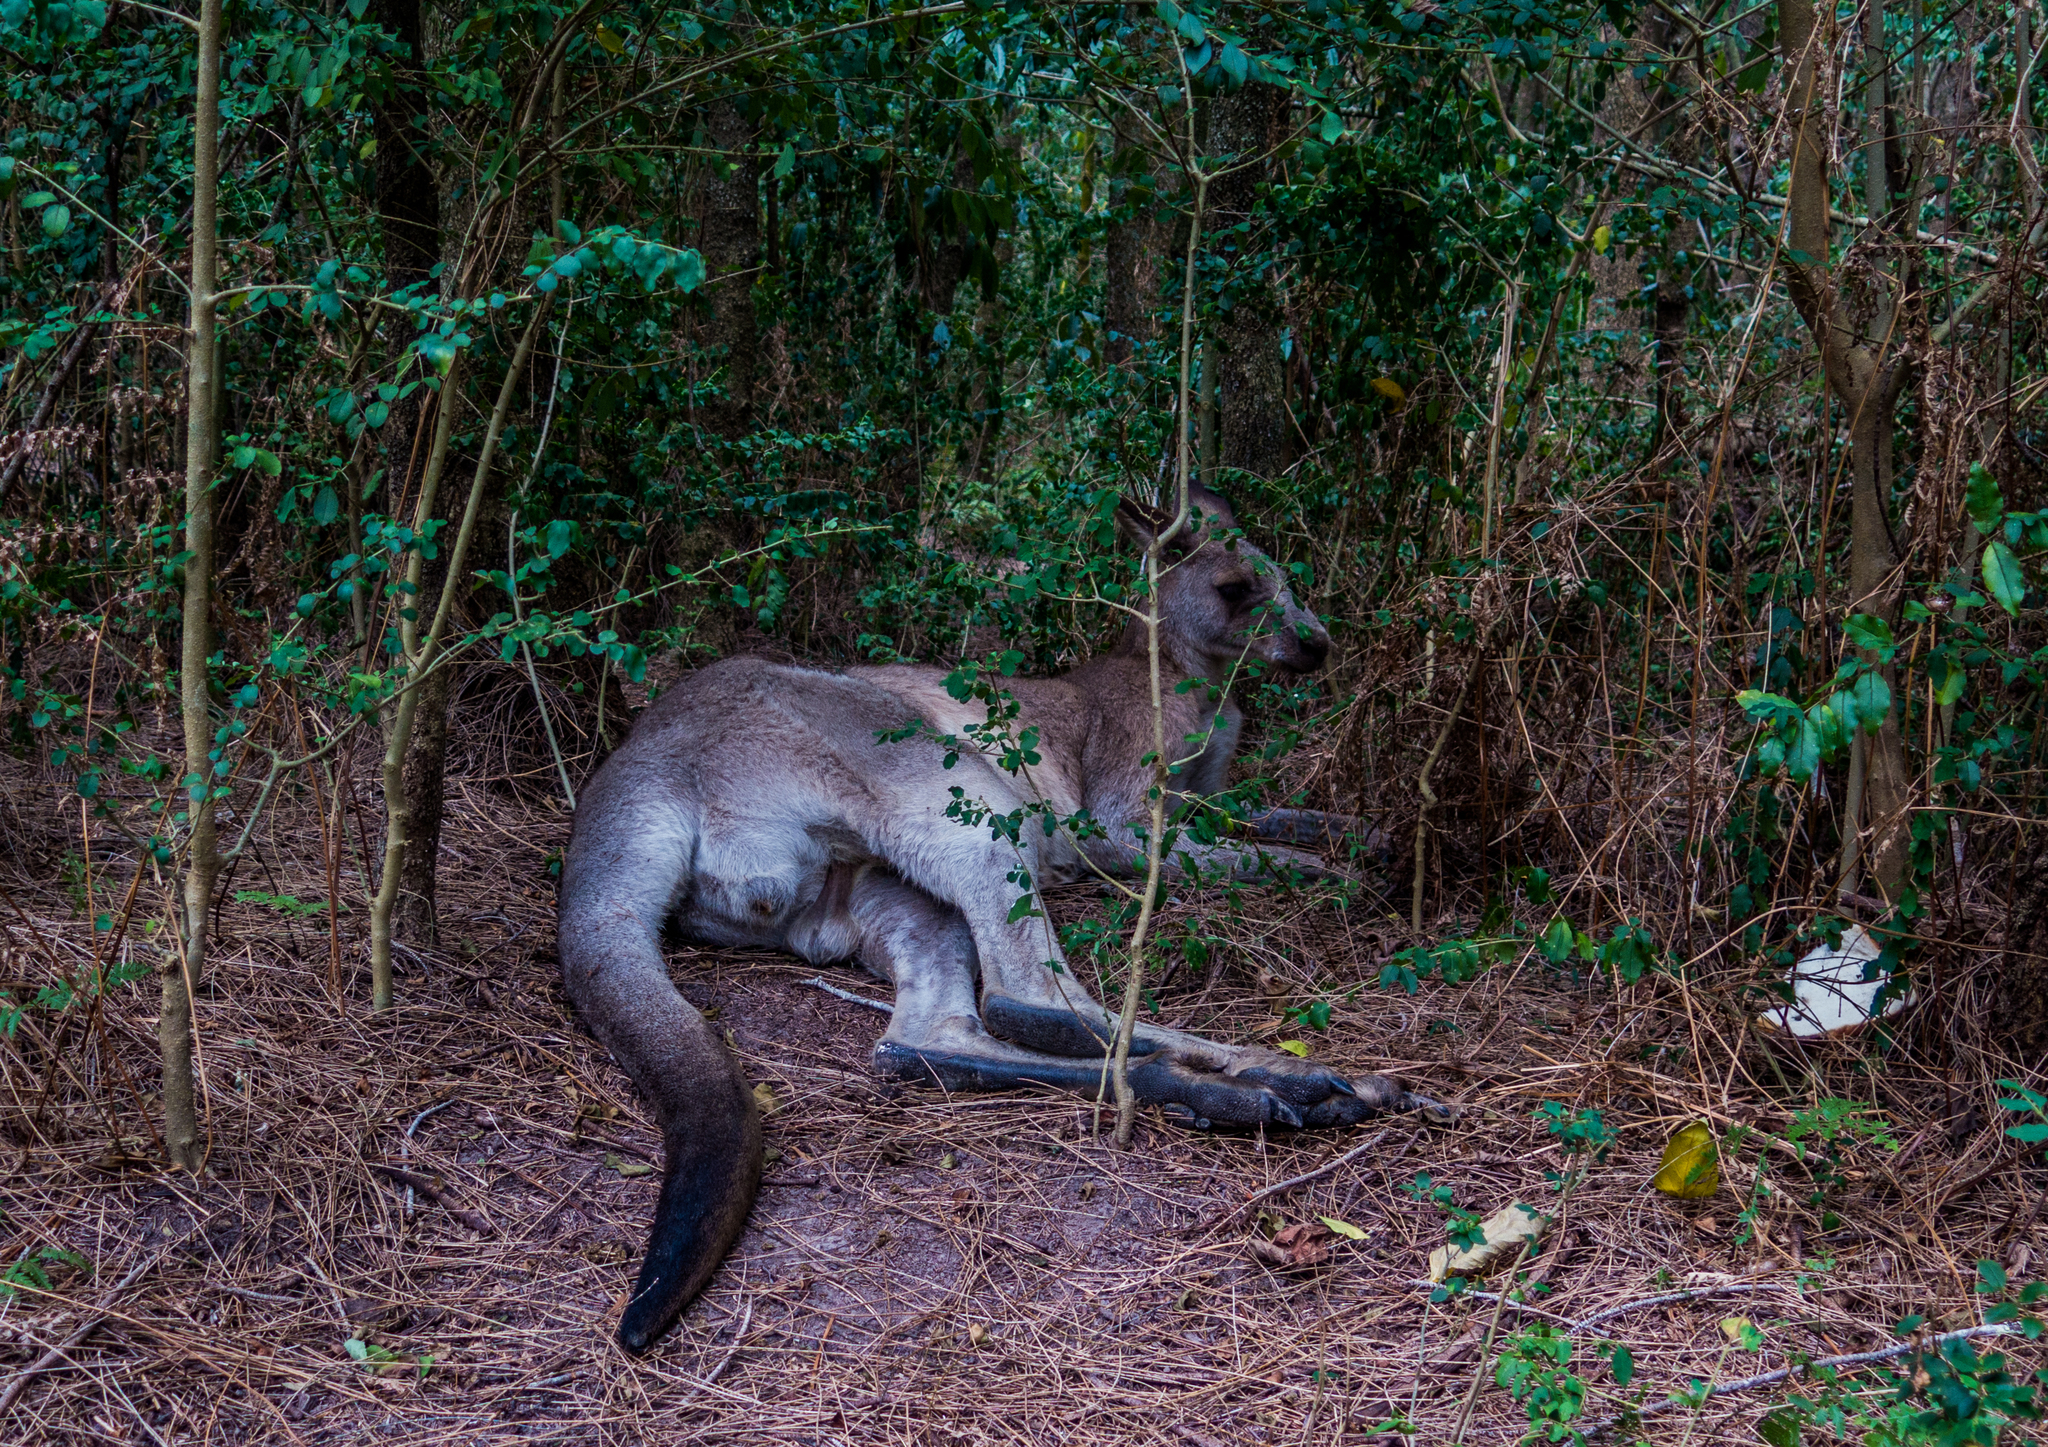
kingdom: Animalia
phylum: Chordata
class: Mammalia
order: Diprotodontia
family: Macropodidae
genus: Macropus
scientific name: Macropus giganteus
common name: Eastern grey kangaroo
